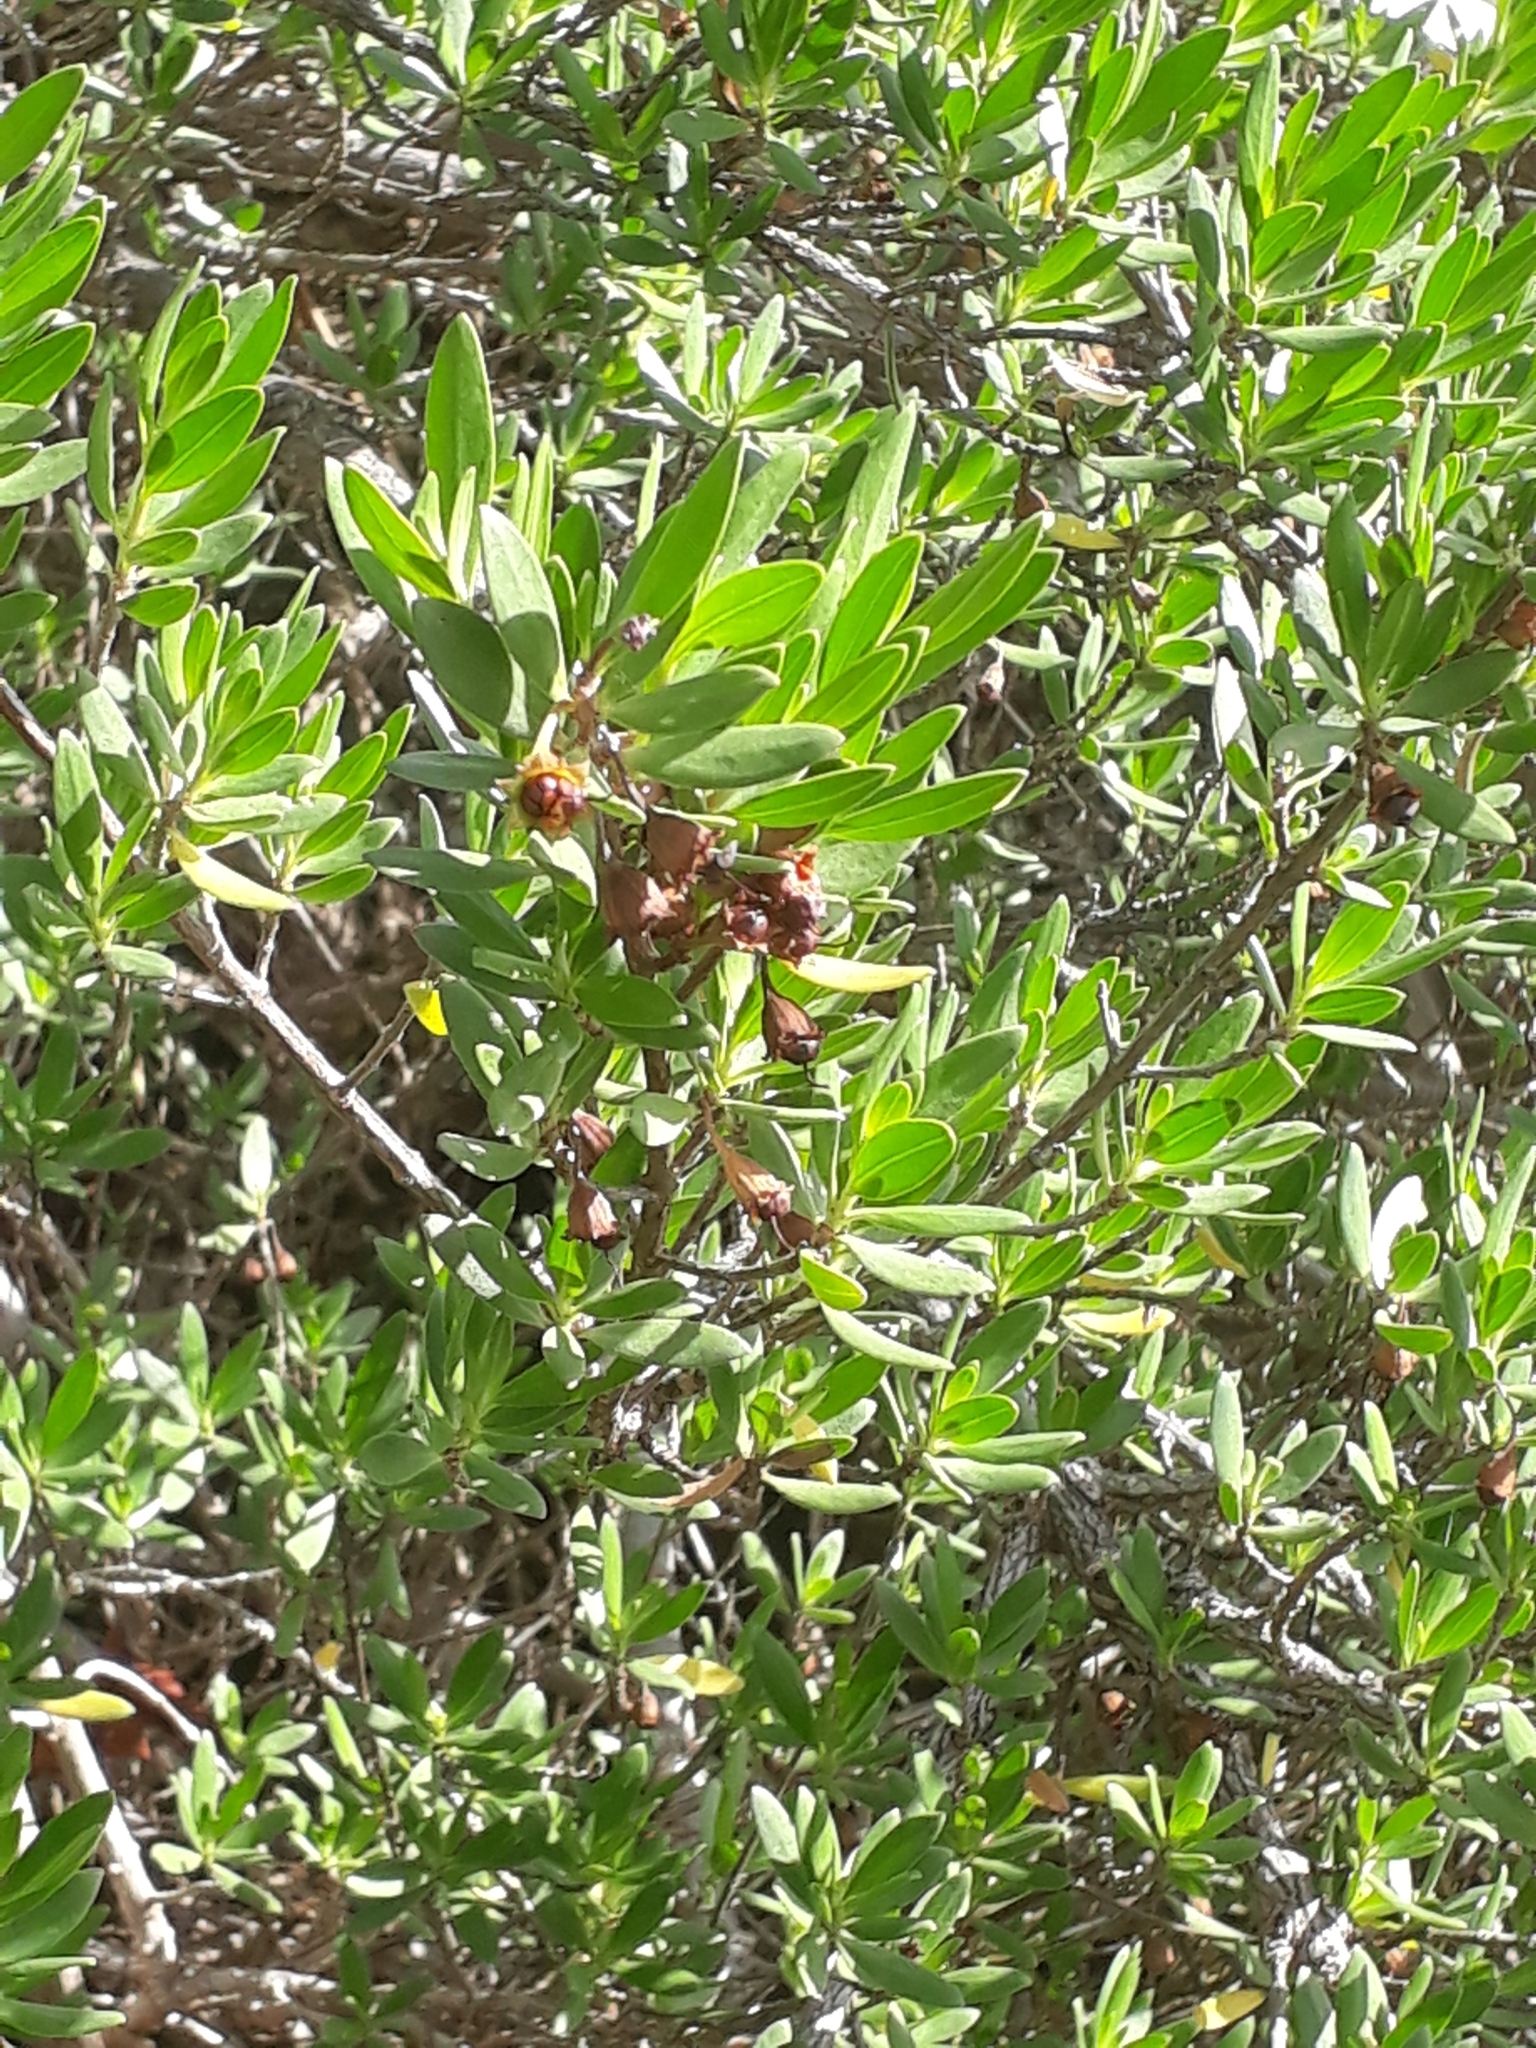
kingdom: Plantae
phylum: Tracheophyta
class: Magnoliopsida
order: Myrtales
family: Lythraceae
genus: Pemphis
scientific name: Pemphis acidula
